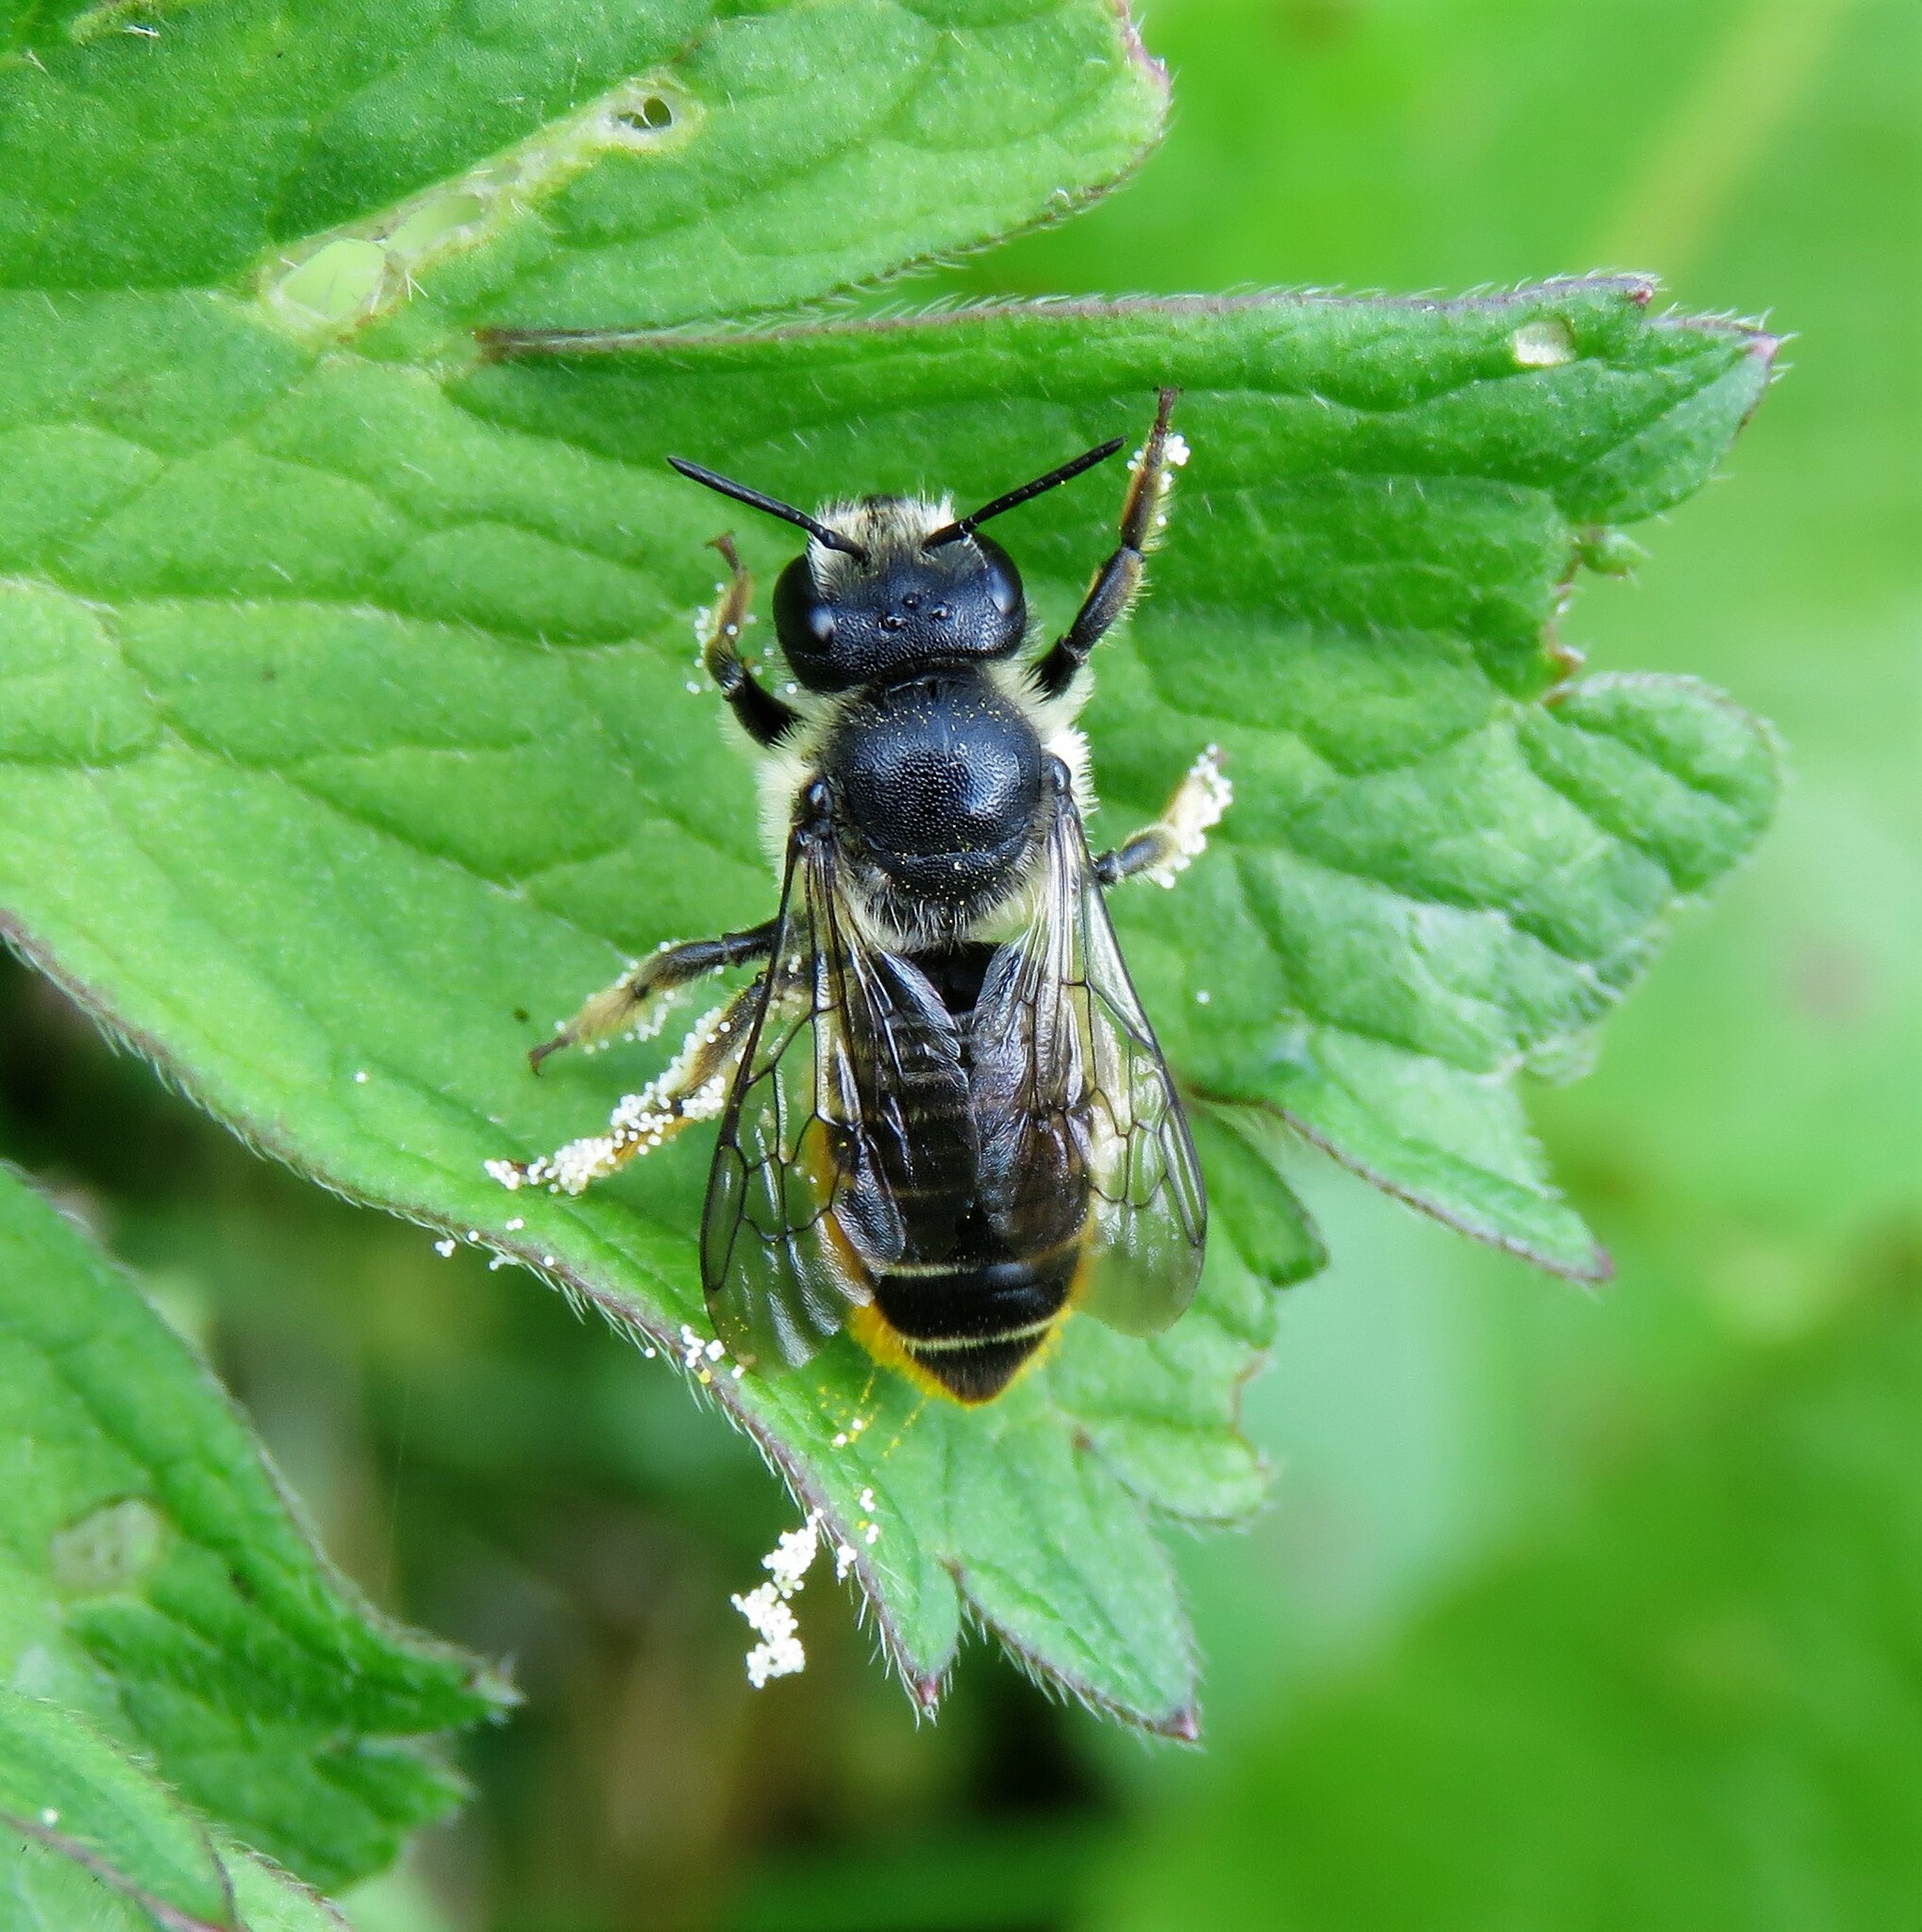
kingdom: Animalia
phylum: Arthropoda
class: Insecta
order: Hymenoptera
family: Megachilidae
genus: Megachile
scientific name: Megachile relativa
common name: Golden-tailed leafcutter
